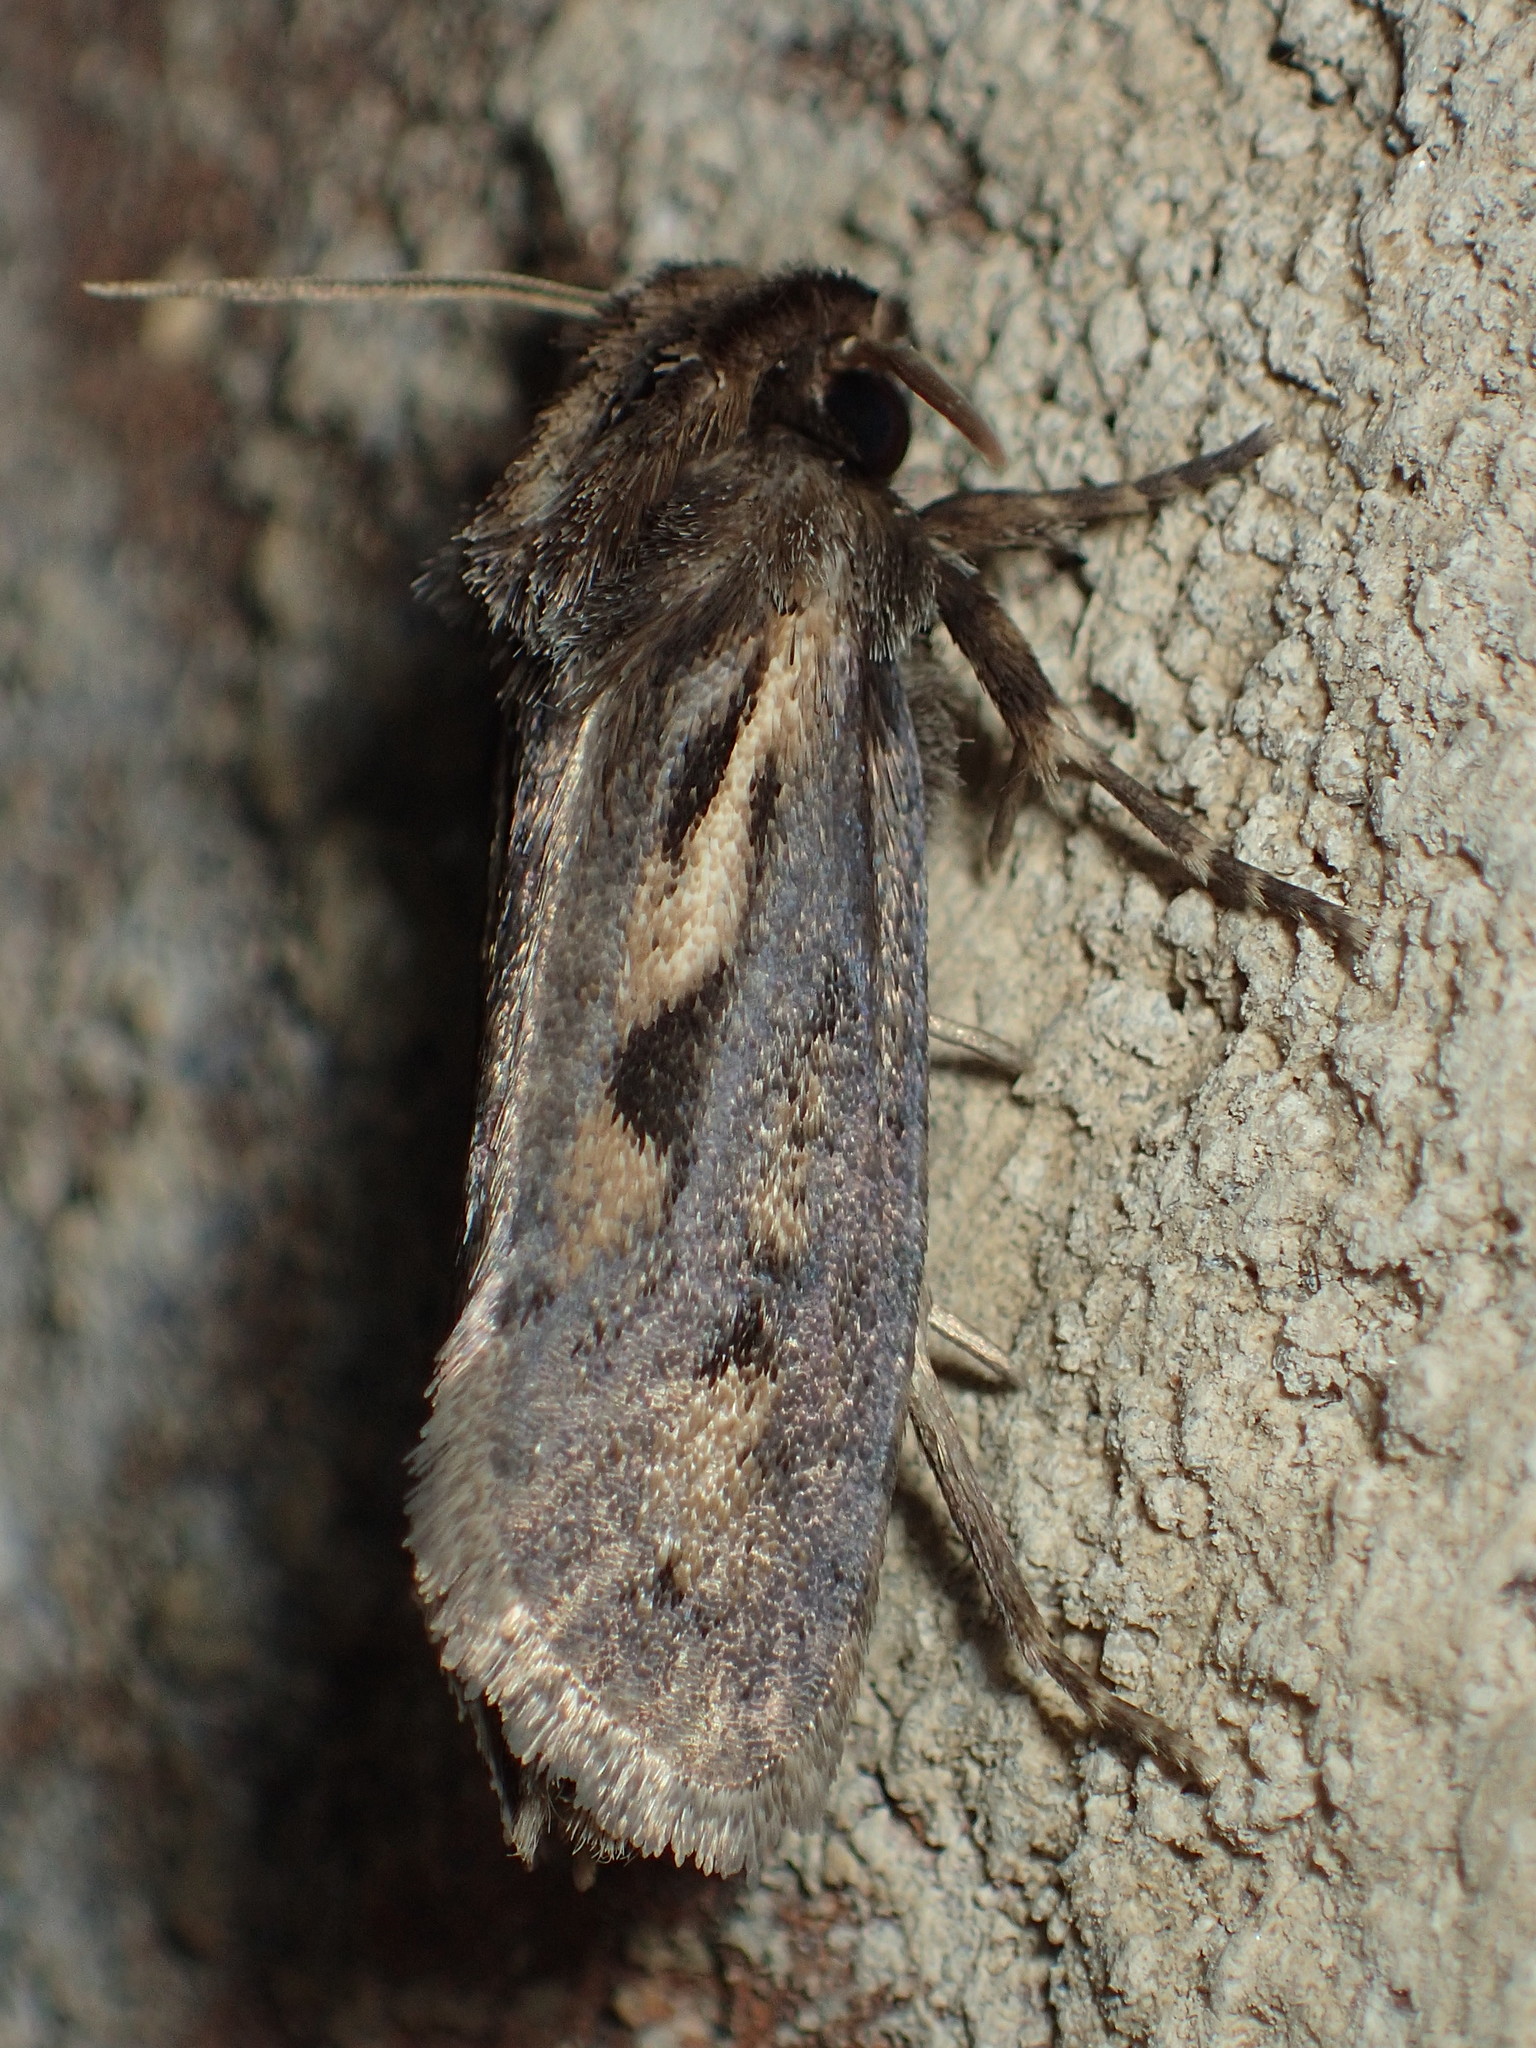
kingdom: Animalia
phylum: Arthropoda
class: Insecta
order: Lepidoptera
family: Tineidae
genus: Acrolophus
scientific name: Acrolophus popeanella
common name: Clemens' grass tubeworm moth
